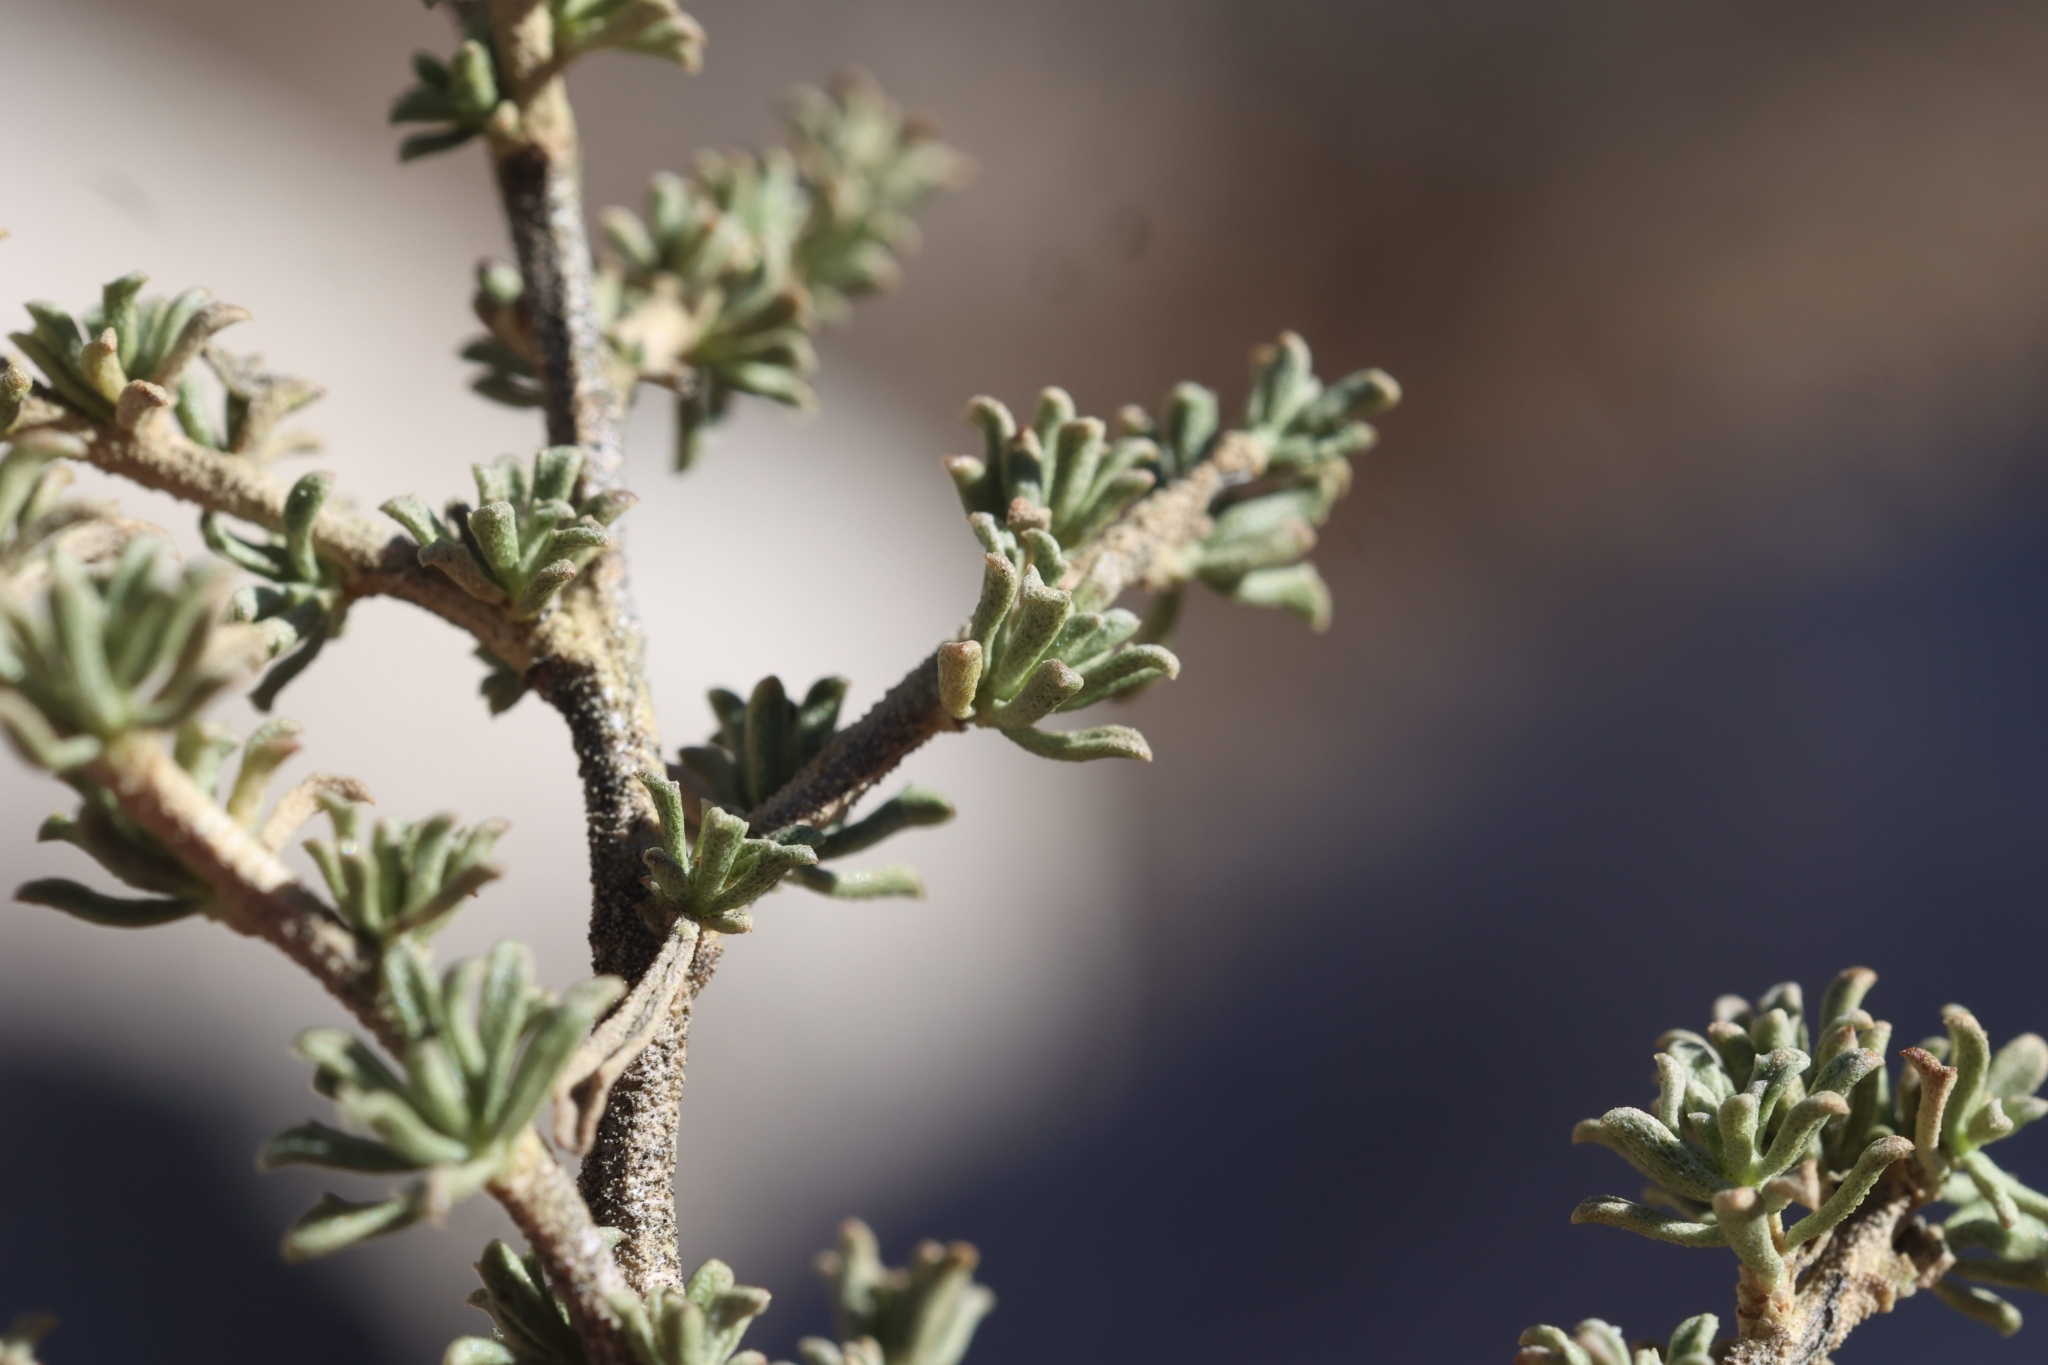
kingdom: Plantae
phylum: Tracheophyta
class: Magnoliopsida
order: Rosales
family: Rhamnaceae
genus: Condalia
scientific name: Condalia ericoides
